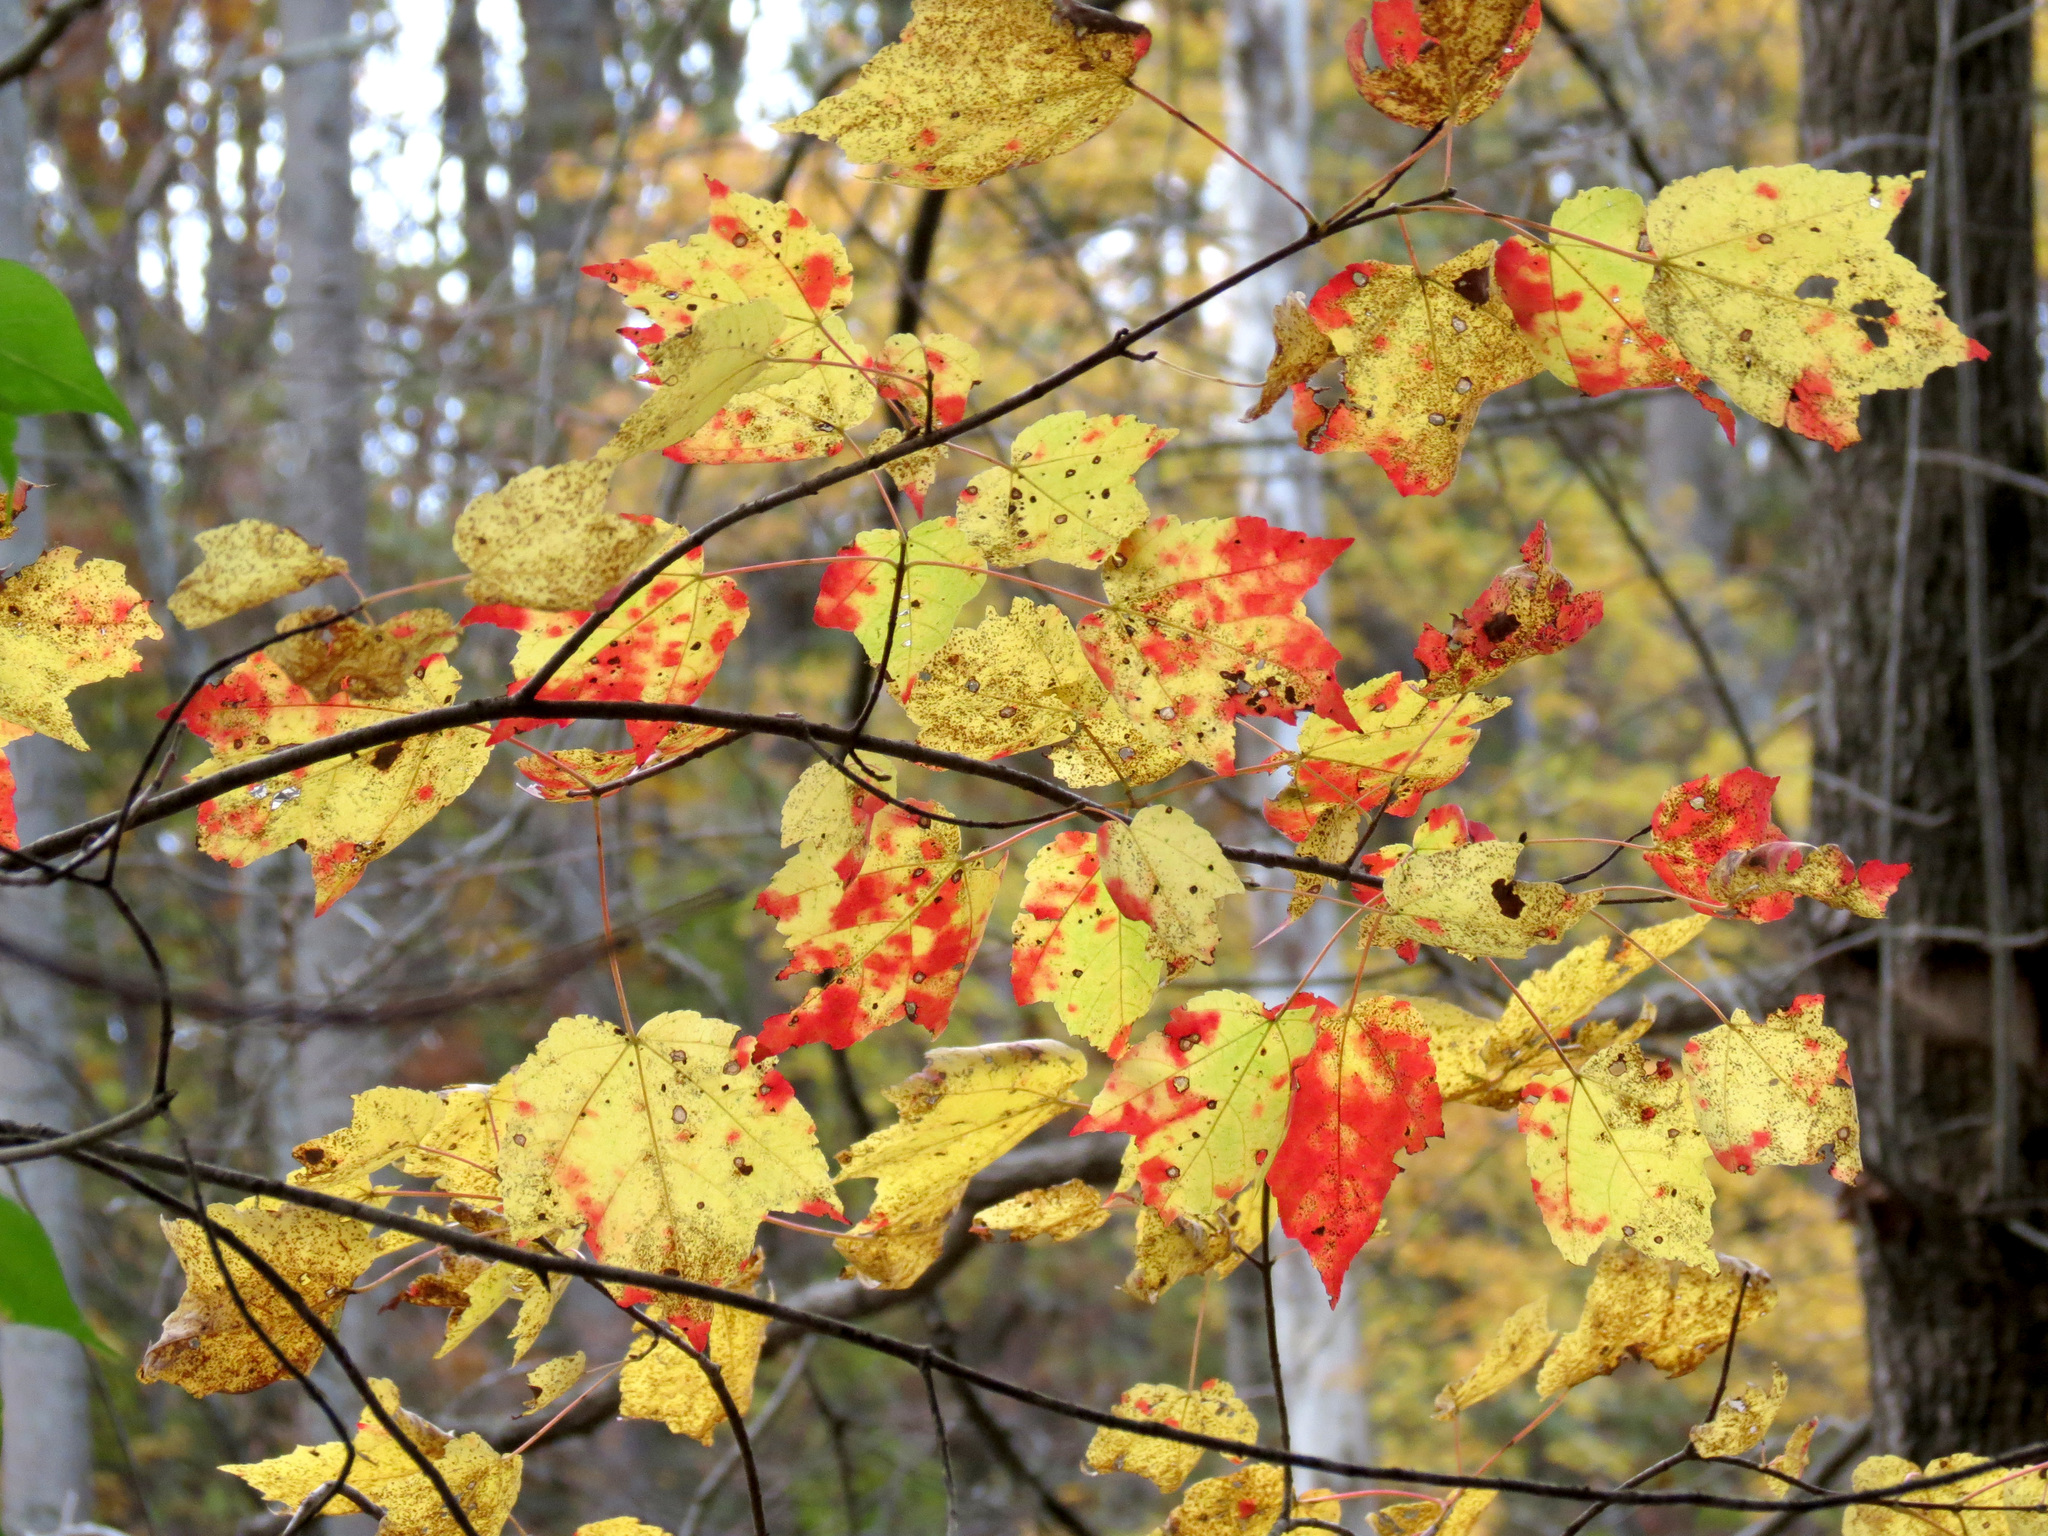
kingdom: Plantae
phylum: Tracheophyta
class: Magnoliopsida
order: Sapindales
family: Sapindaceae
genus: Acer
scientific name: Acer rubrum
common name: Red maple
